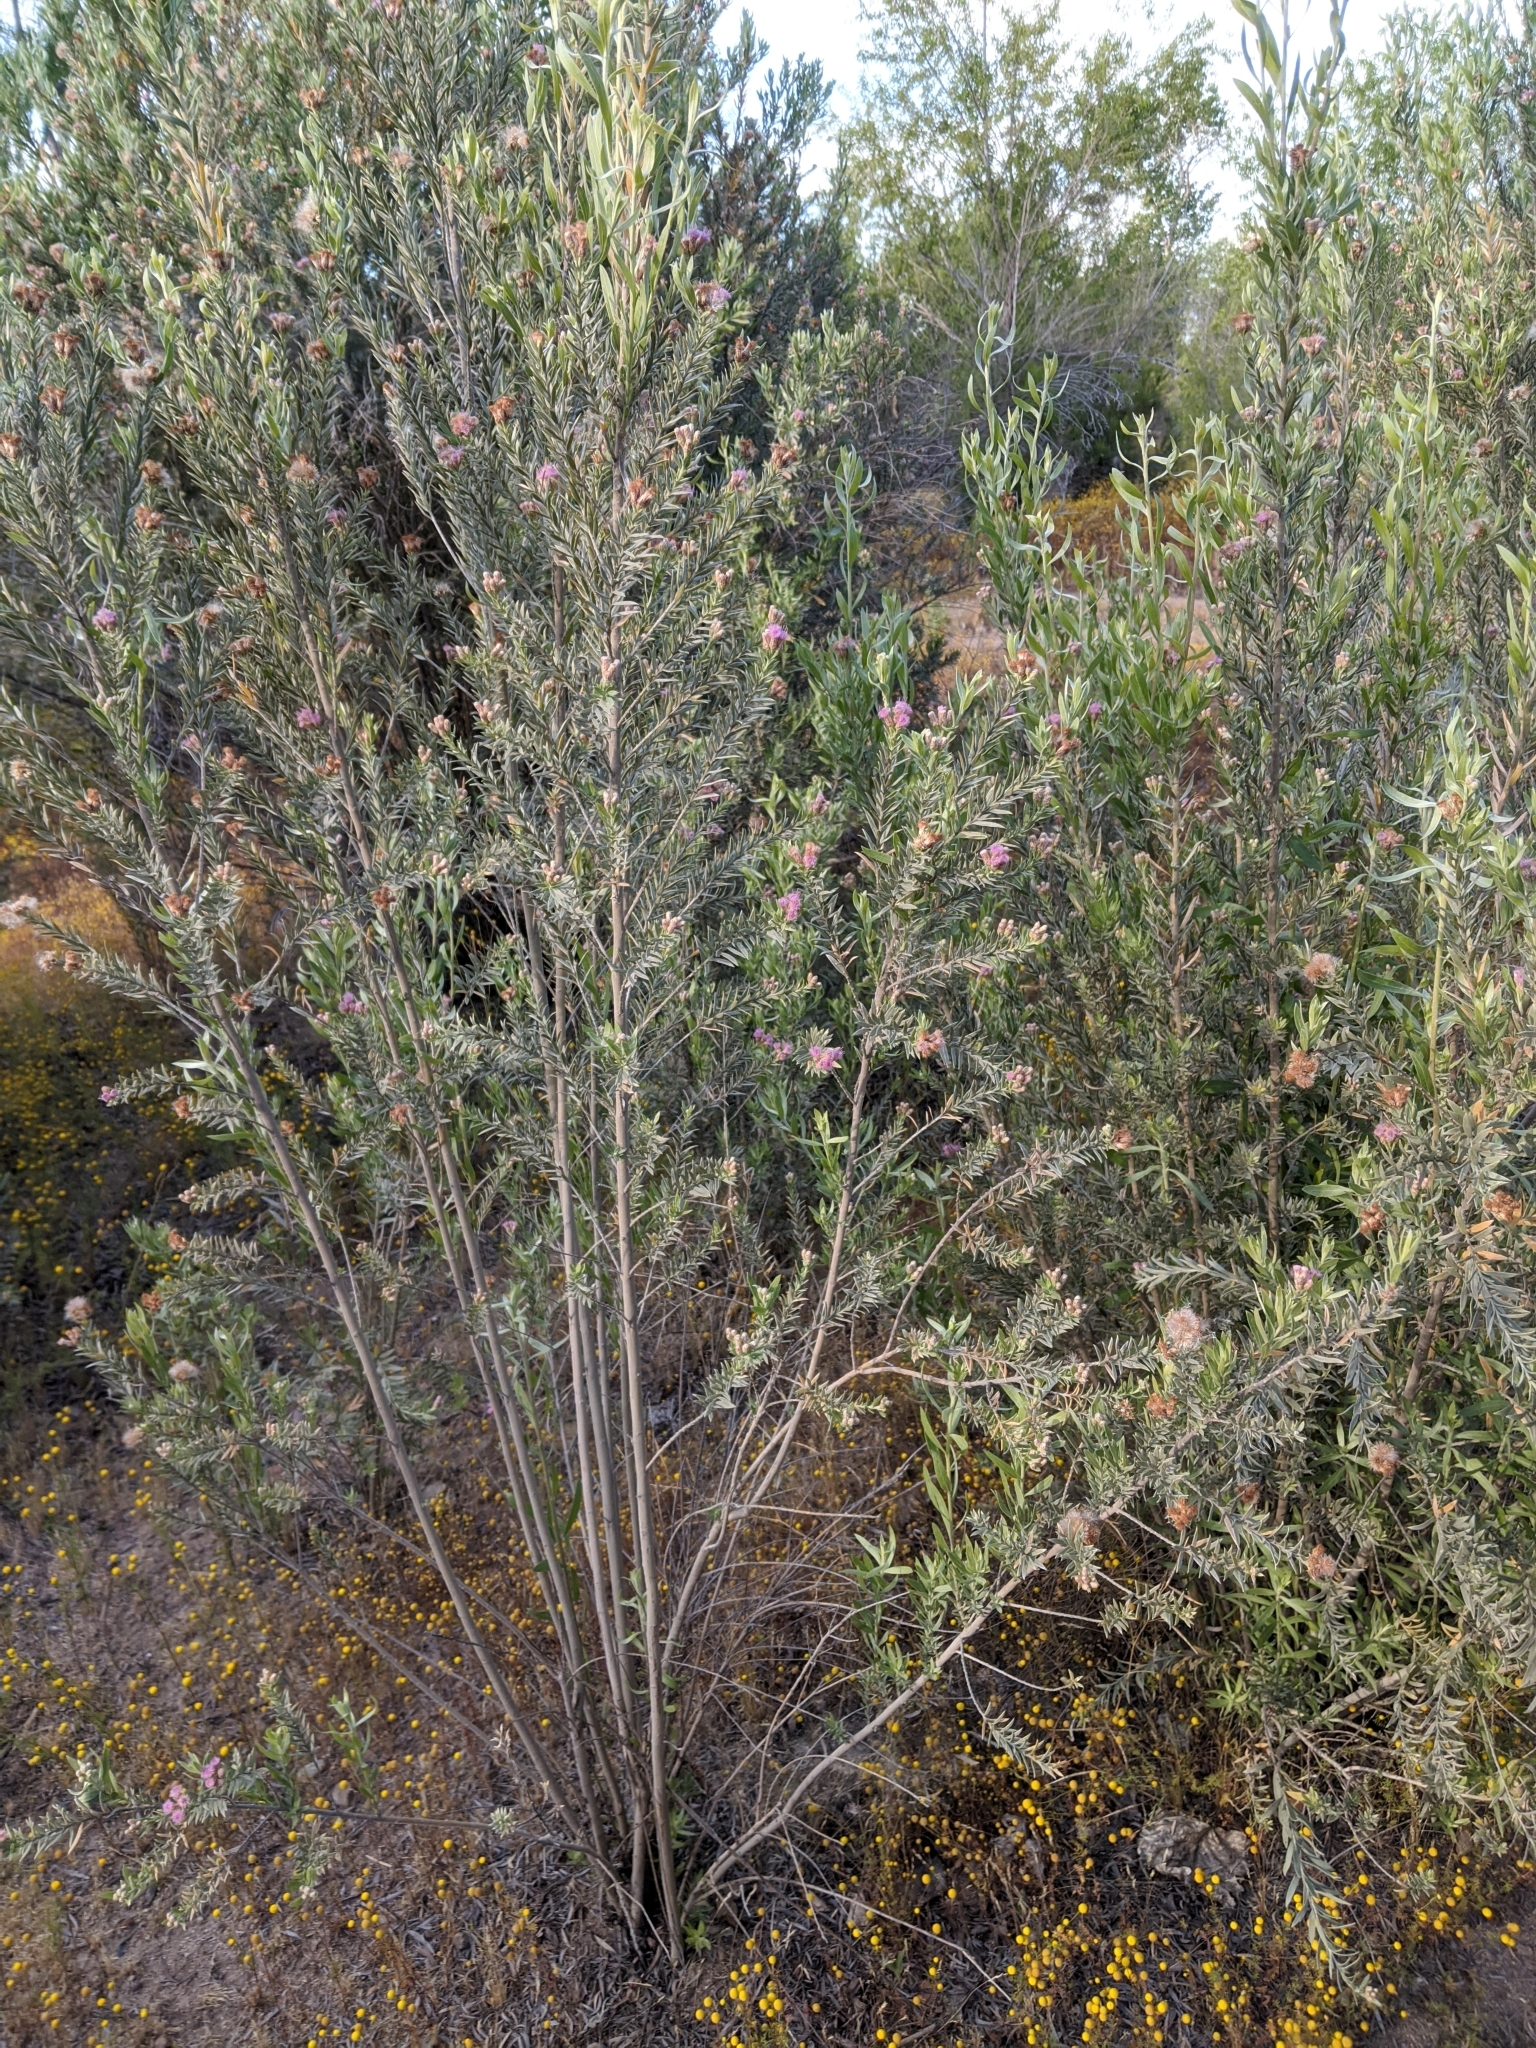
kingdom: Plantae
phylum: Tracheophyta
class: Magnoliopsida
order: Asterales
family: Asteraceae
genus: Pluchea
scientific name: Pluchea sericea
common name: Arrow-weed
